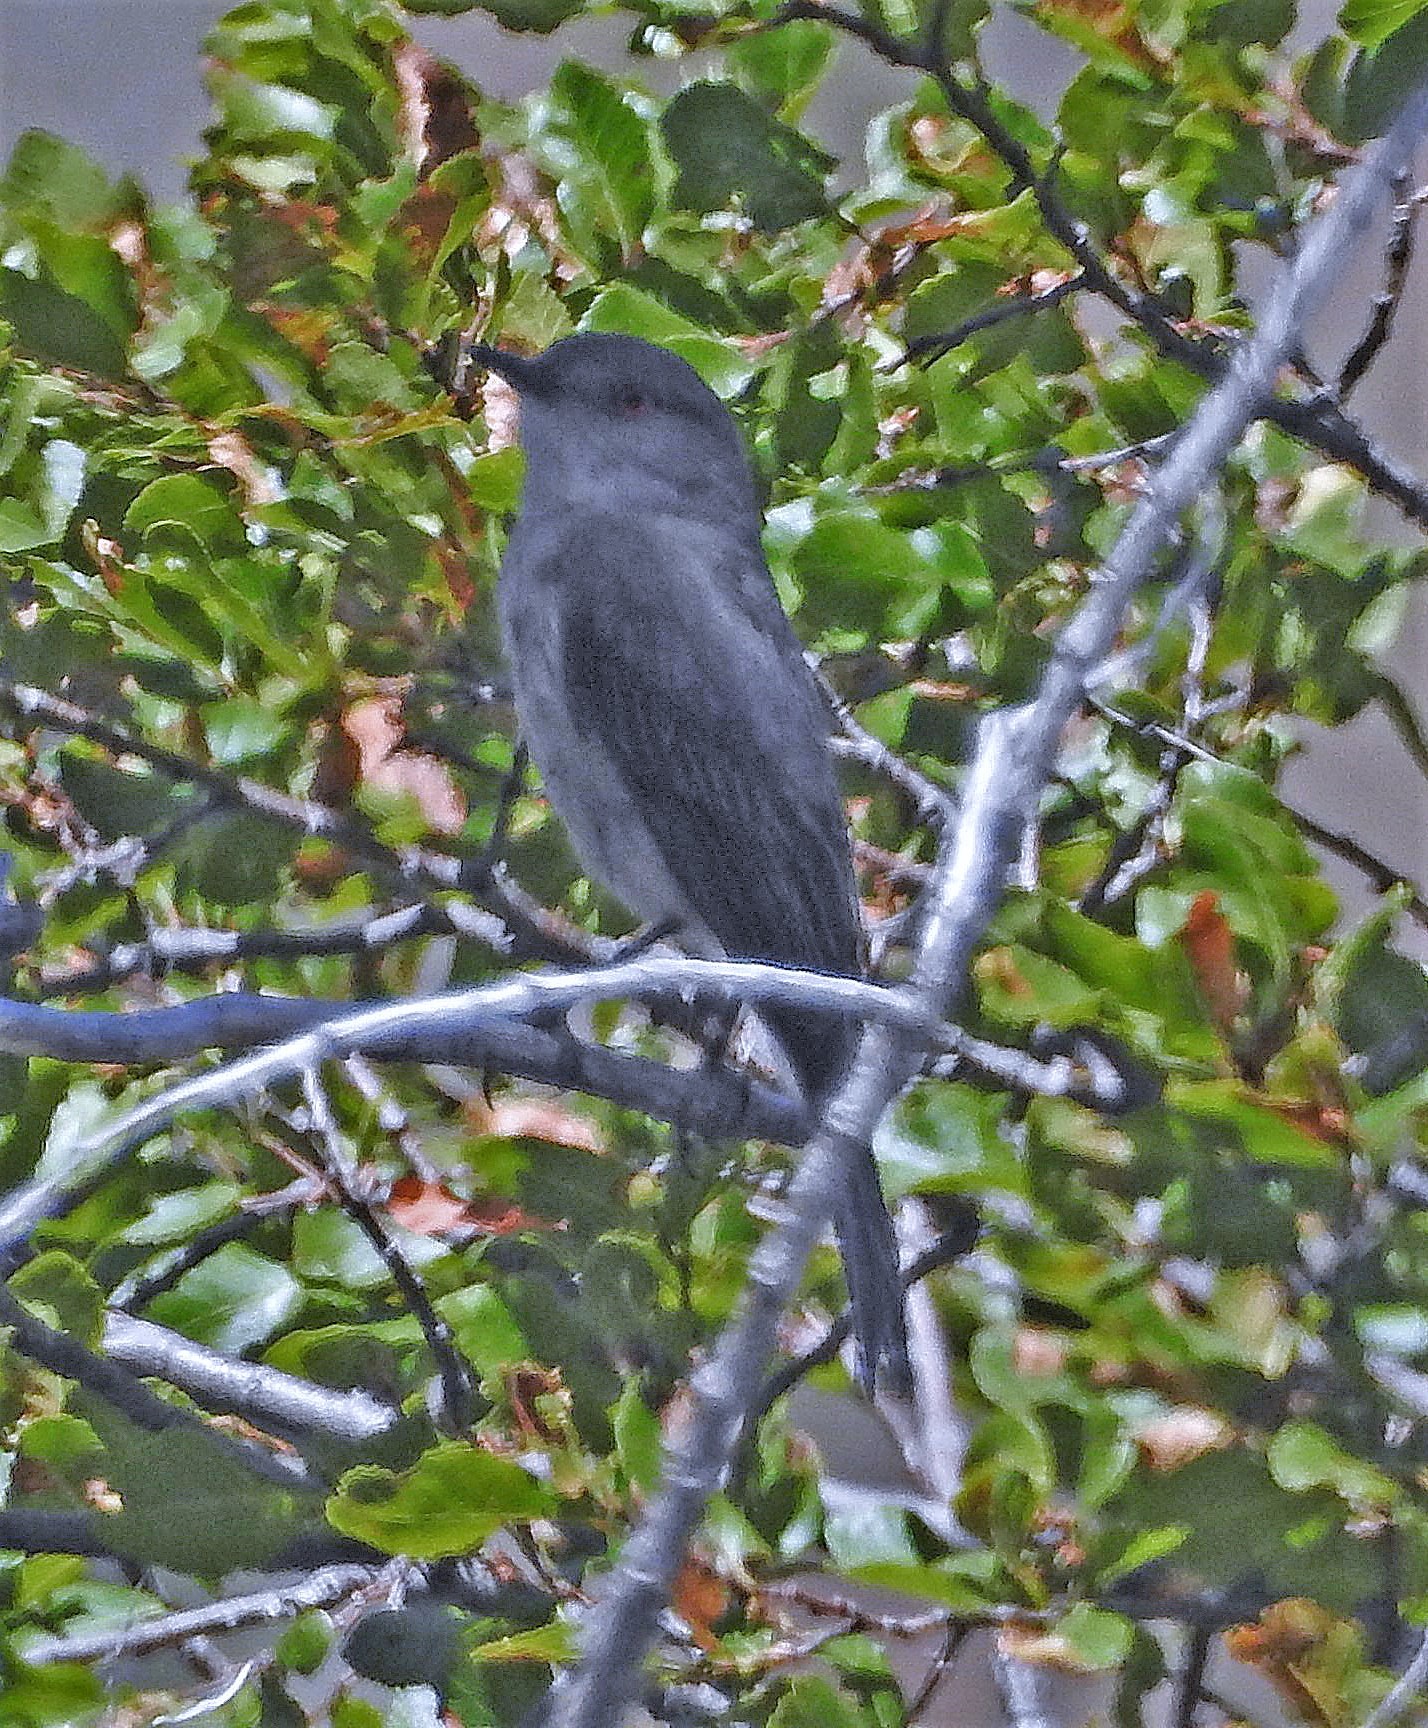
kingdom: Animalia
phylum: Chordata
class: Aves
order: Passeriformes
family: Tyrannidae
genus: Xolmis
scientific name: Xolmis pyrope
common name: Fire-eyed diucon
